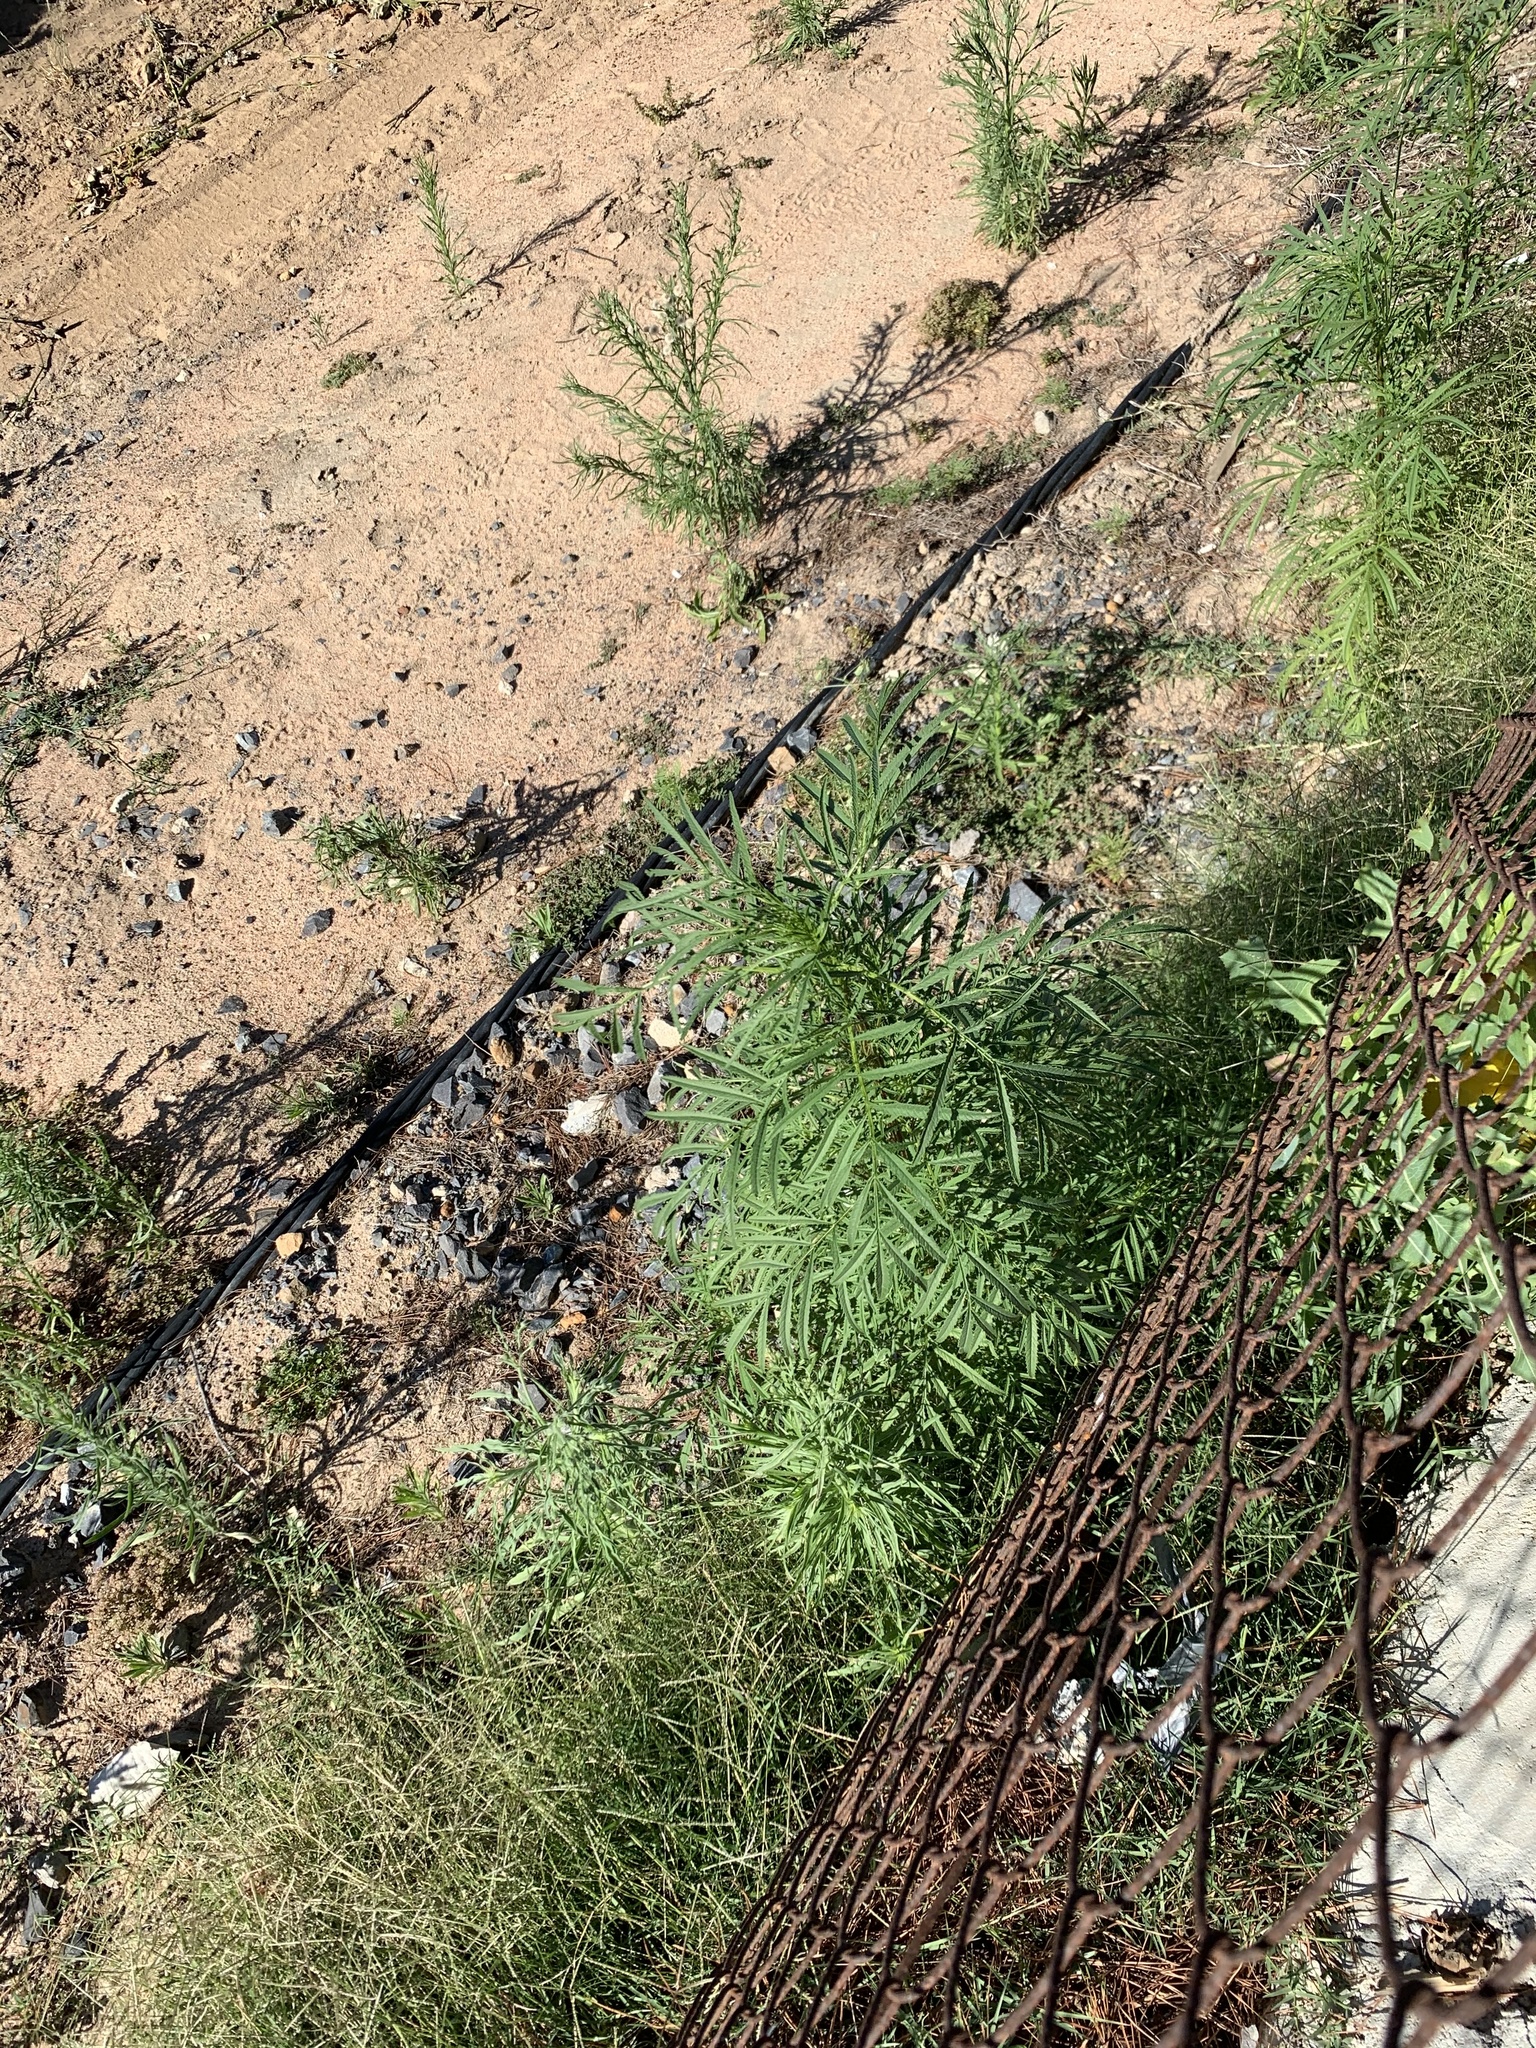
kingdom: Plantae
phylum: Tracheophyta
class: Magnoliopsida
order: Asterales
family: Asteraceae
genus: Tagetes
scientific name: Tagetes minuta
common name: Muster john henry
